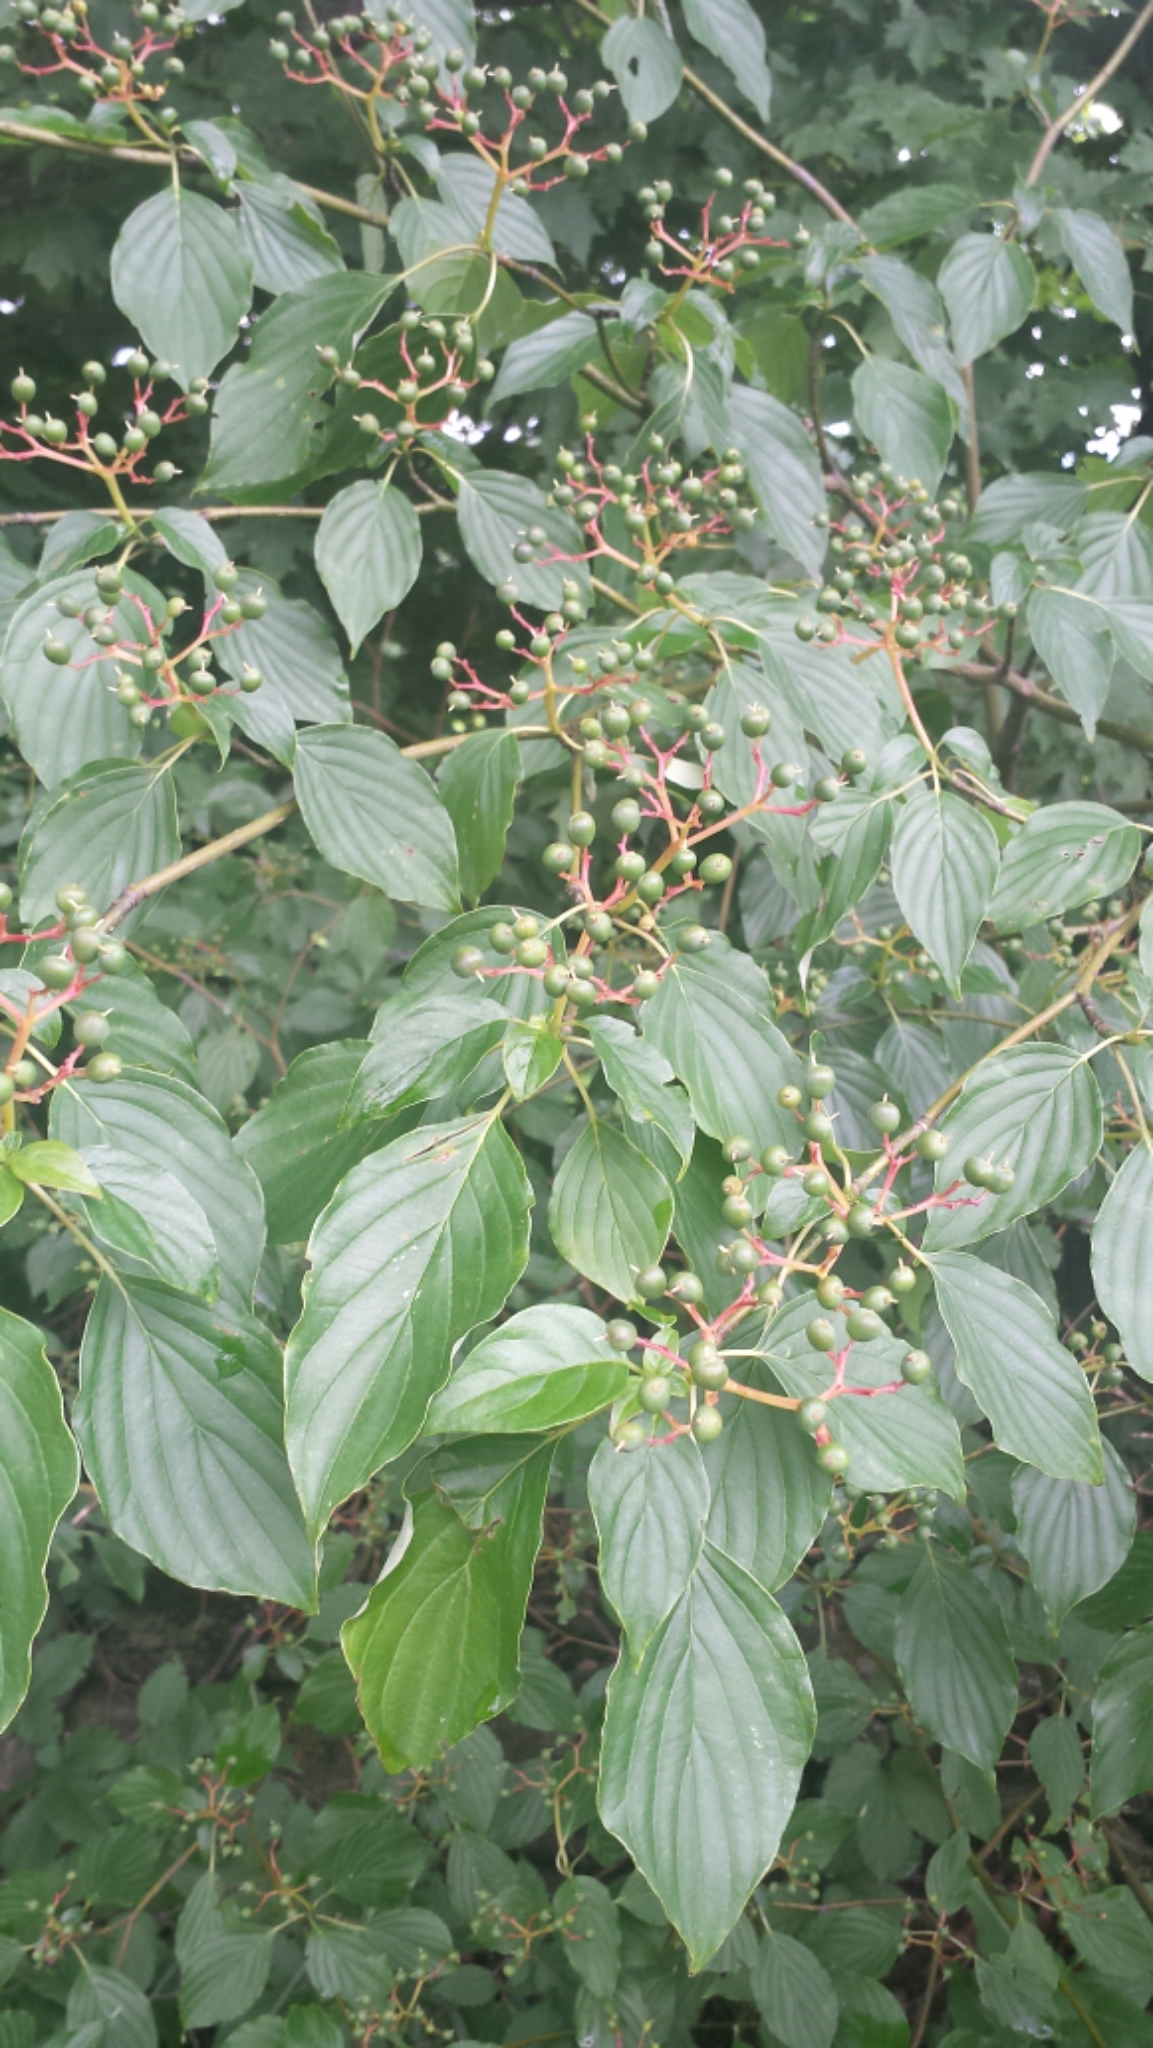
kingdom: Plantae
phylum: Tracheophyta
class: Magnoliopsida
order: Cornales
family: Cornaceae
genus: Cornus
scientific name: Cornus alternifolia
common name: Pagoda dogwood
